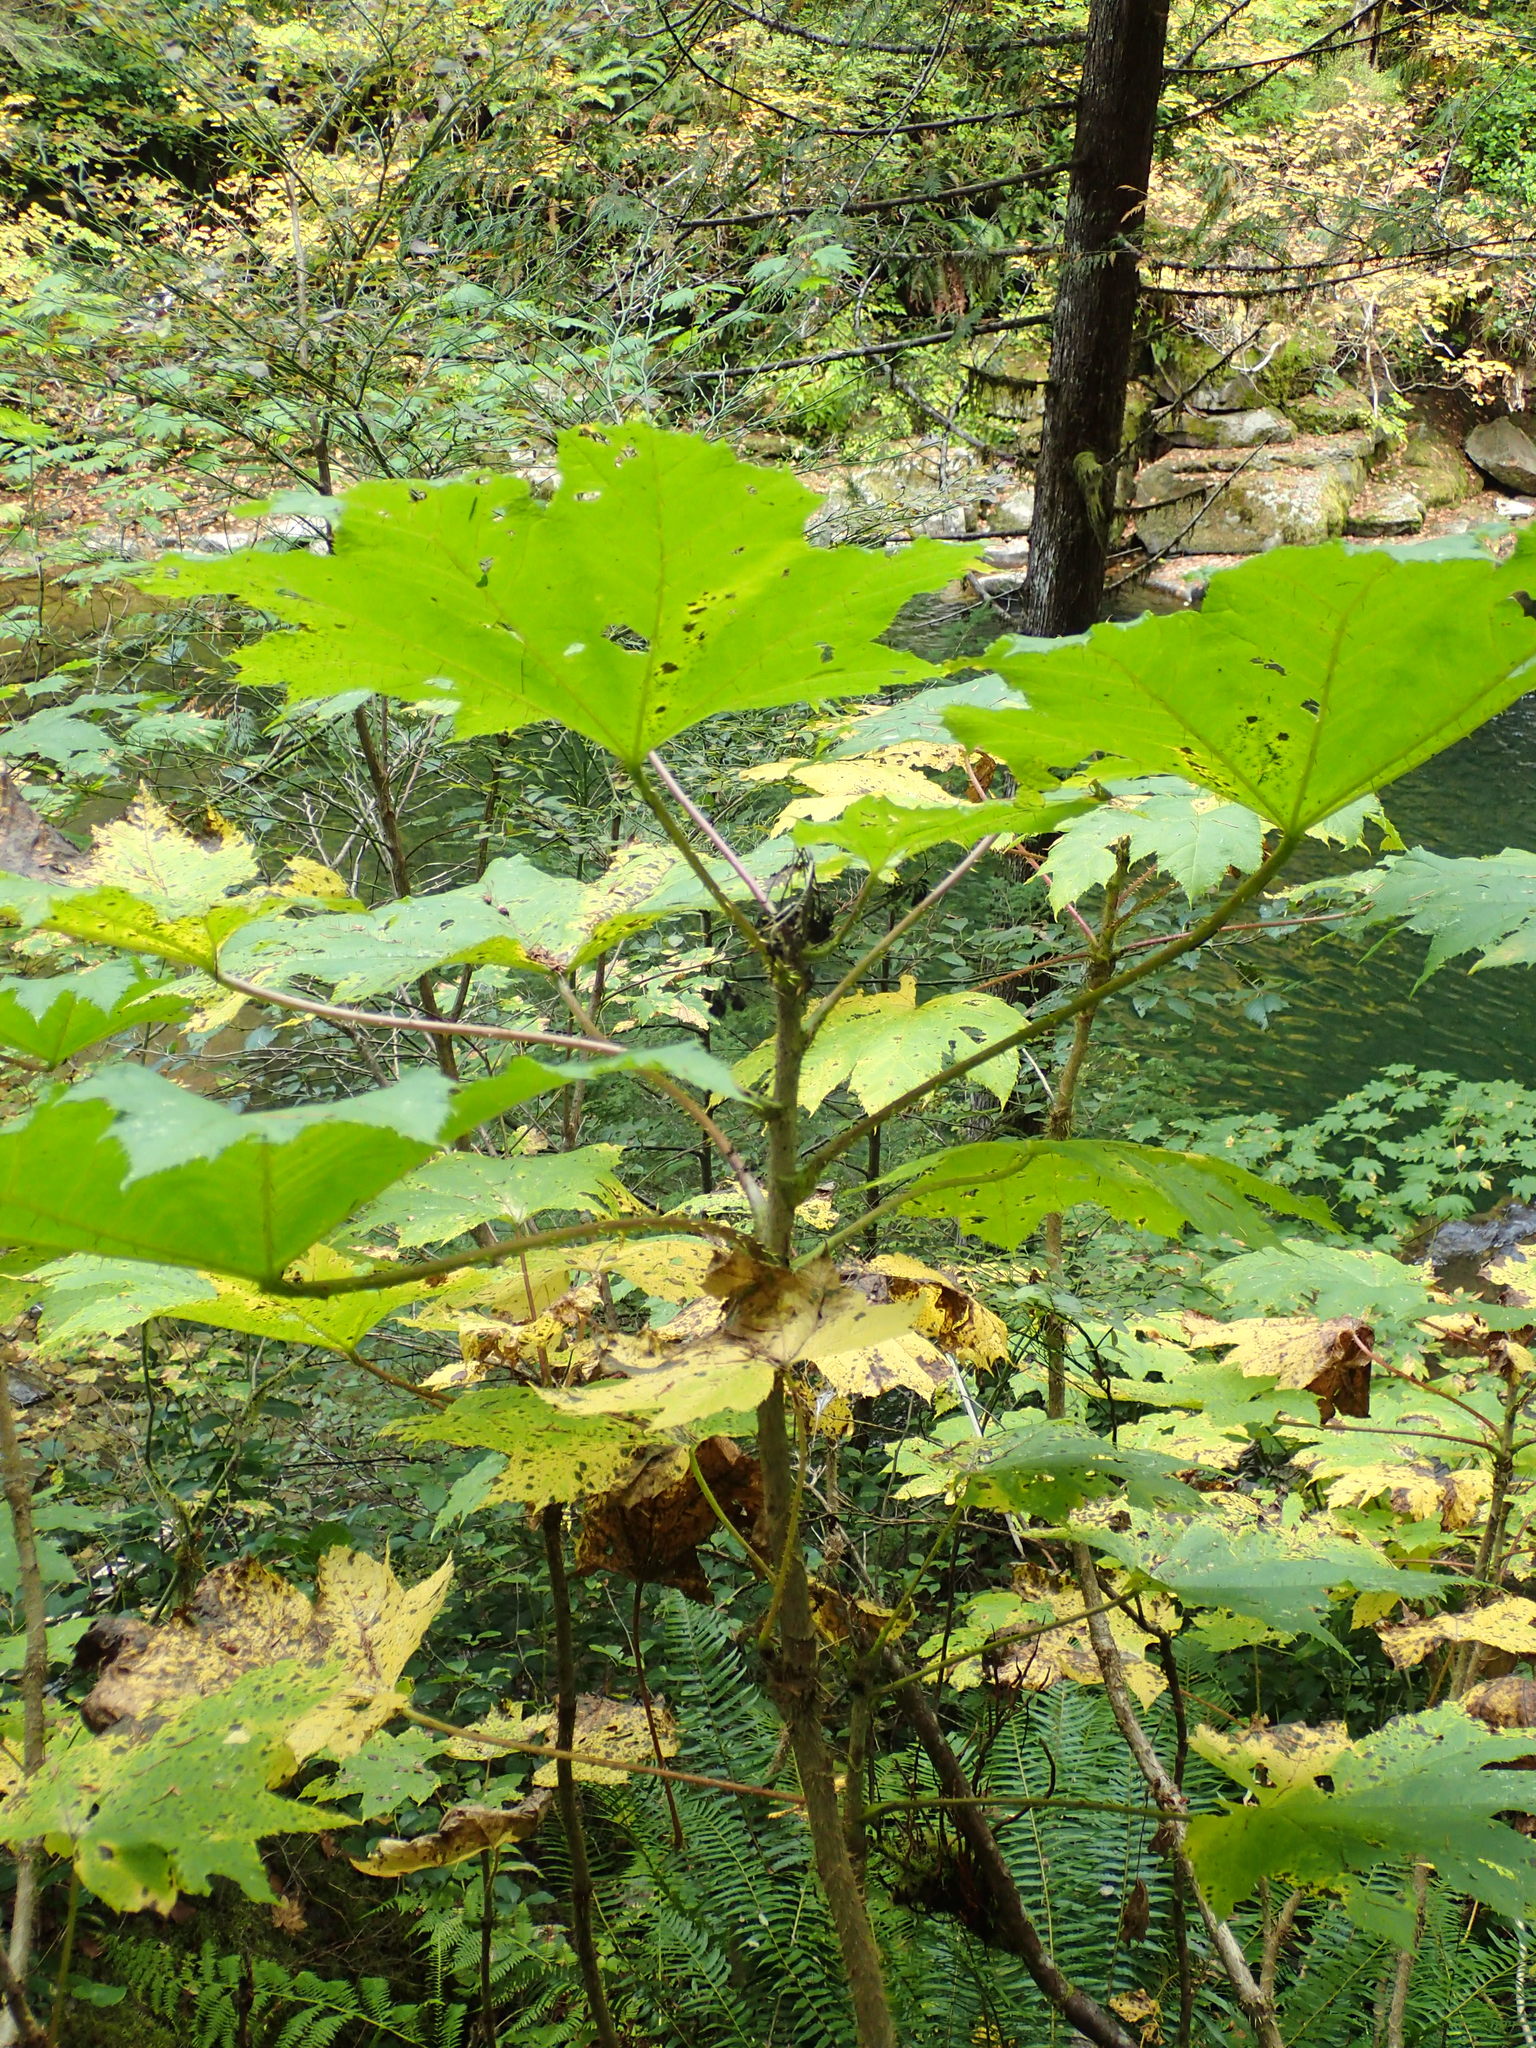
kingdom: Plantae
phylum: Tracheophyta
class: Magnoliopsida
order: Apiales
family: Araliaceae
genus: Oplopanax
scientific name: Oplopanax horridus
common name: Devil's walking-stick
